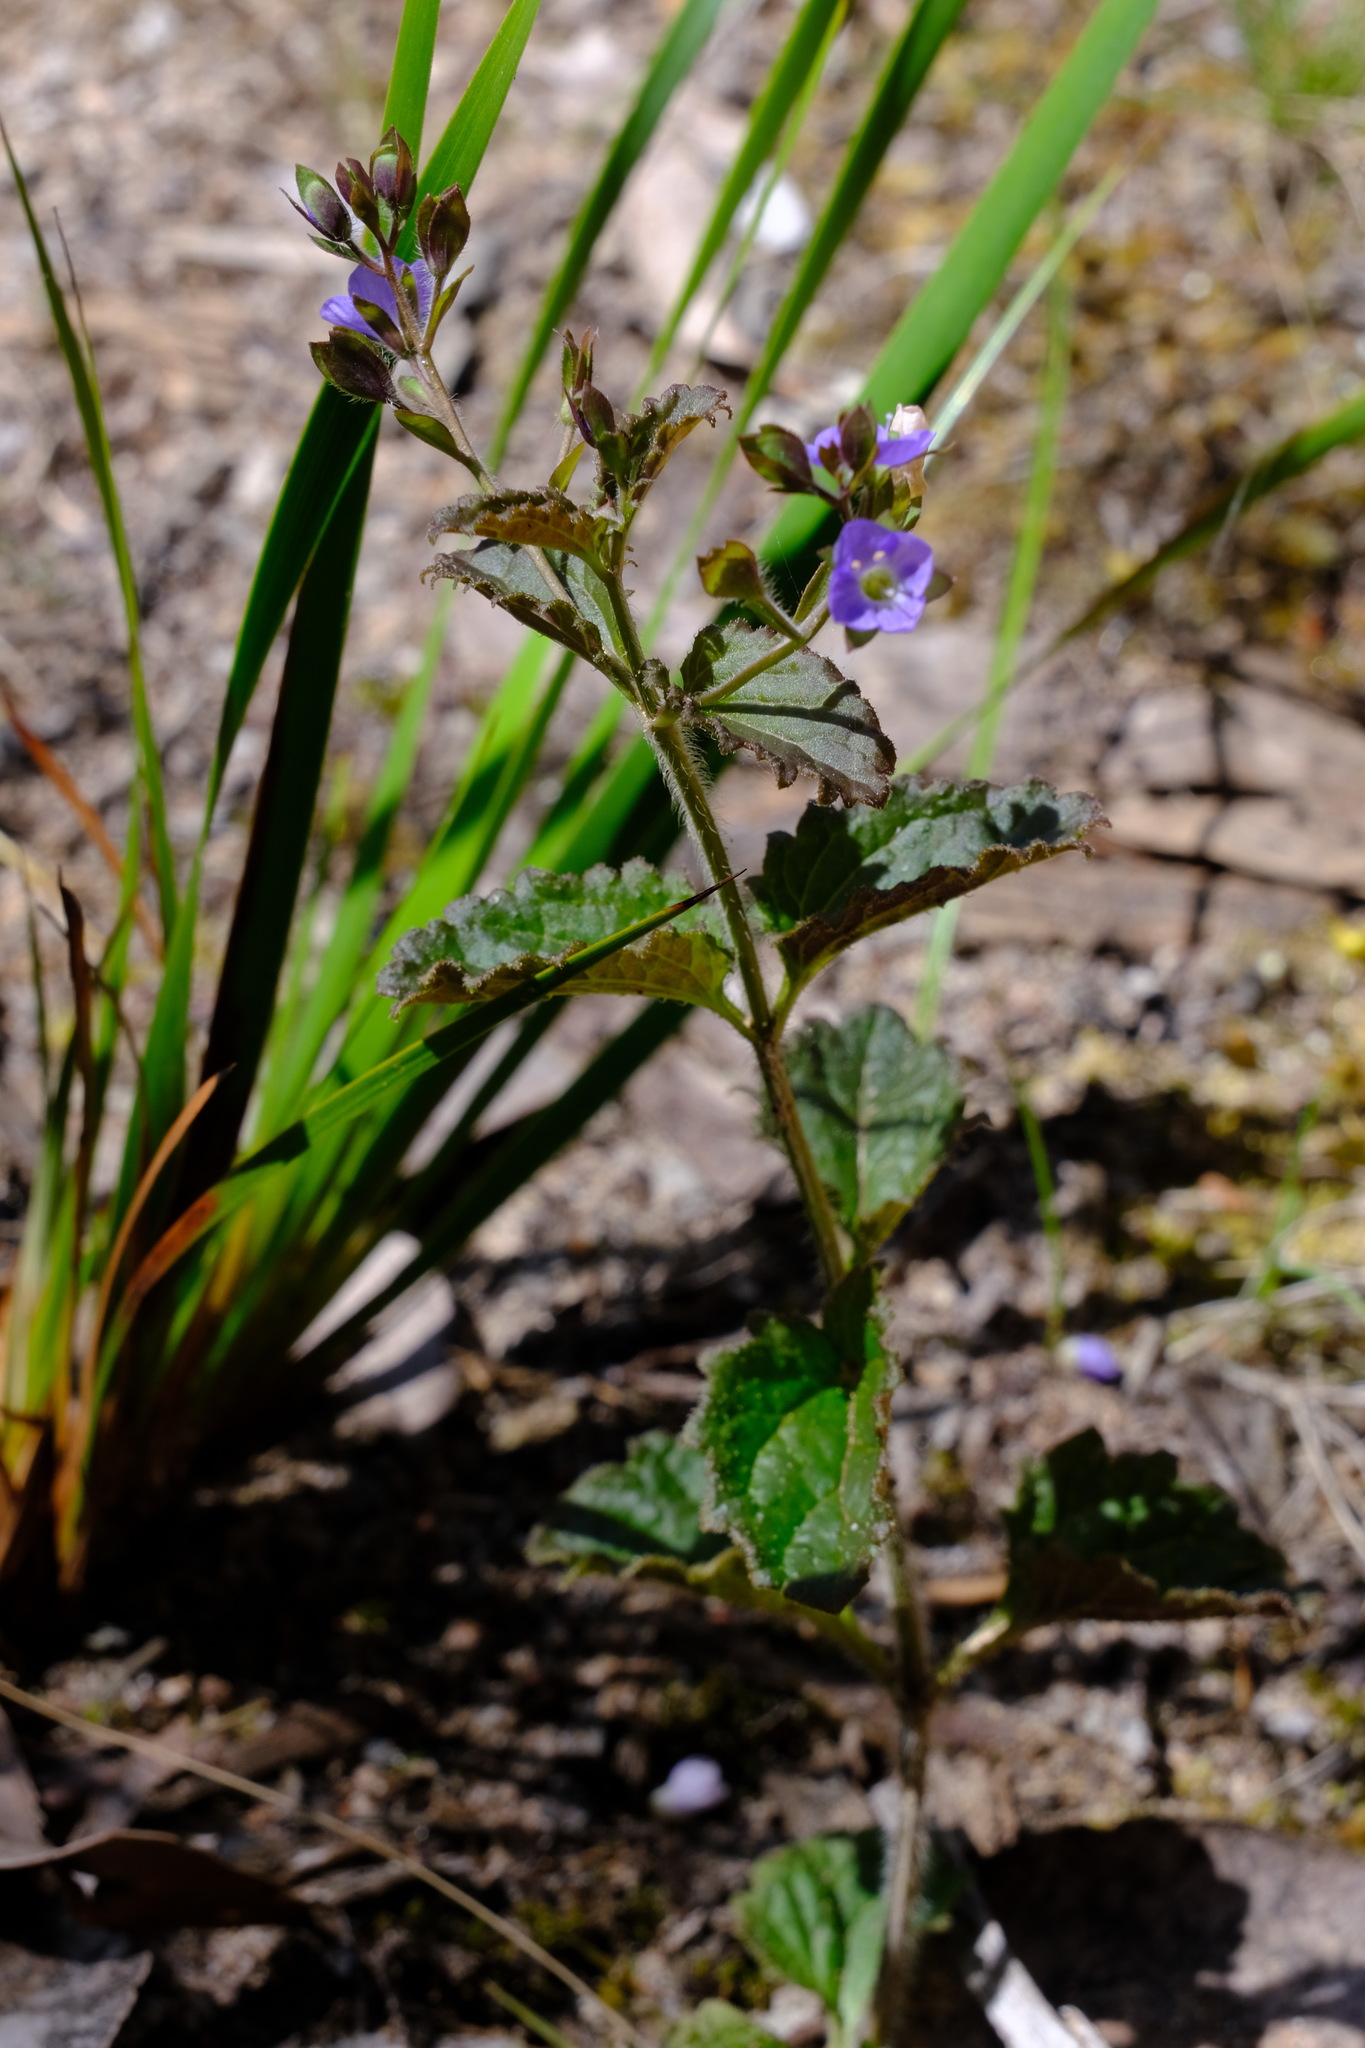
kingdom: Plantae
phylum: Tracheophyta
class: Magnoliopsida
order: Lamiales
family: Plantaginaceae
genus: Veronica
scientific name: Veronica calycina
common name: Cup speedwell
